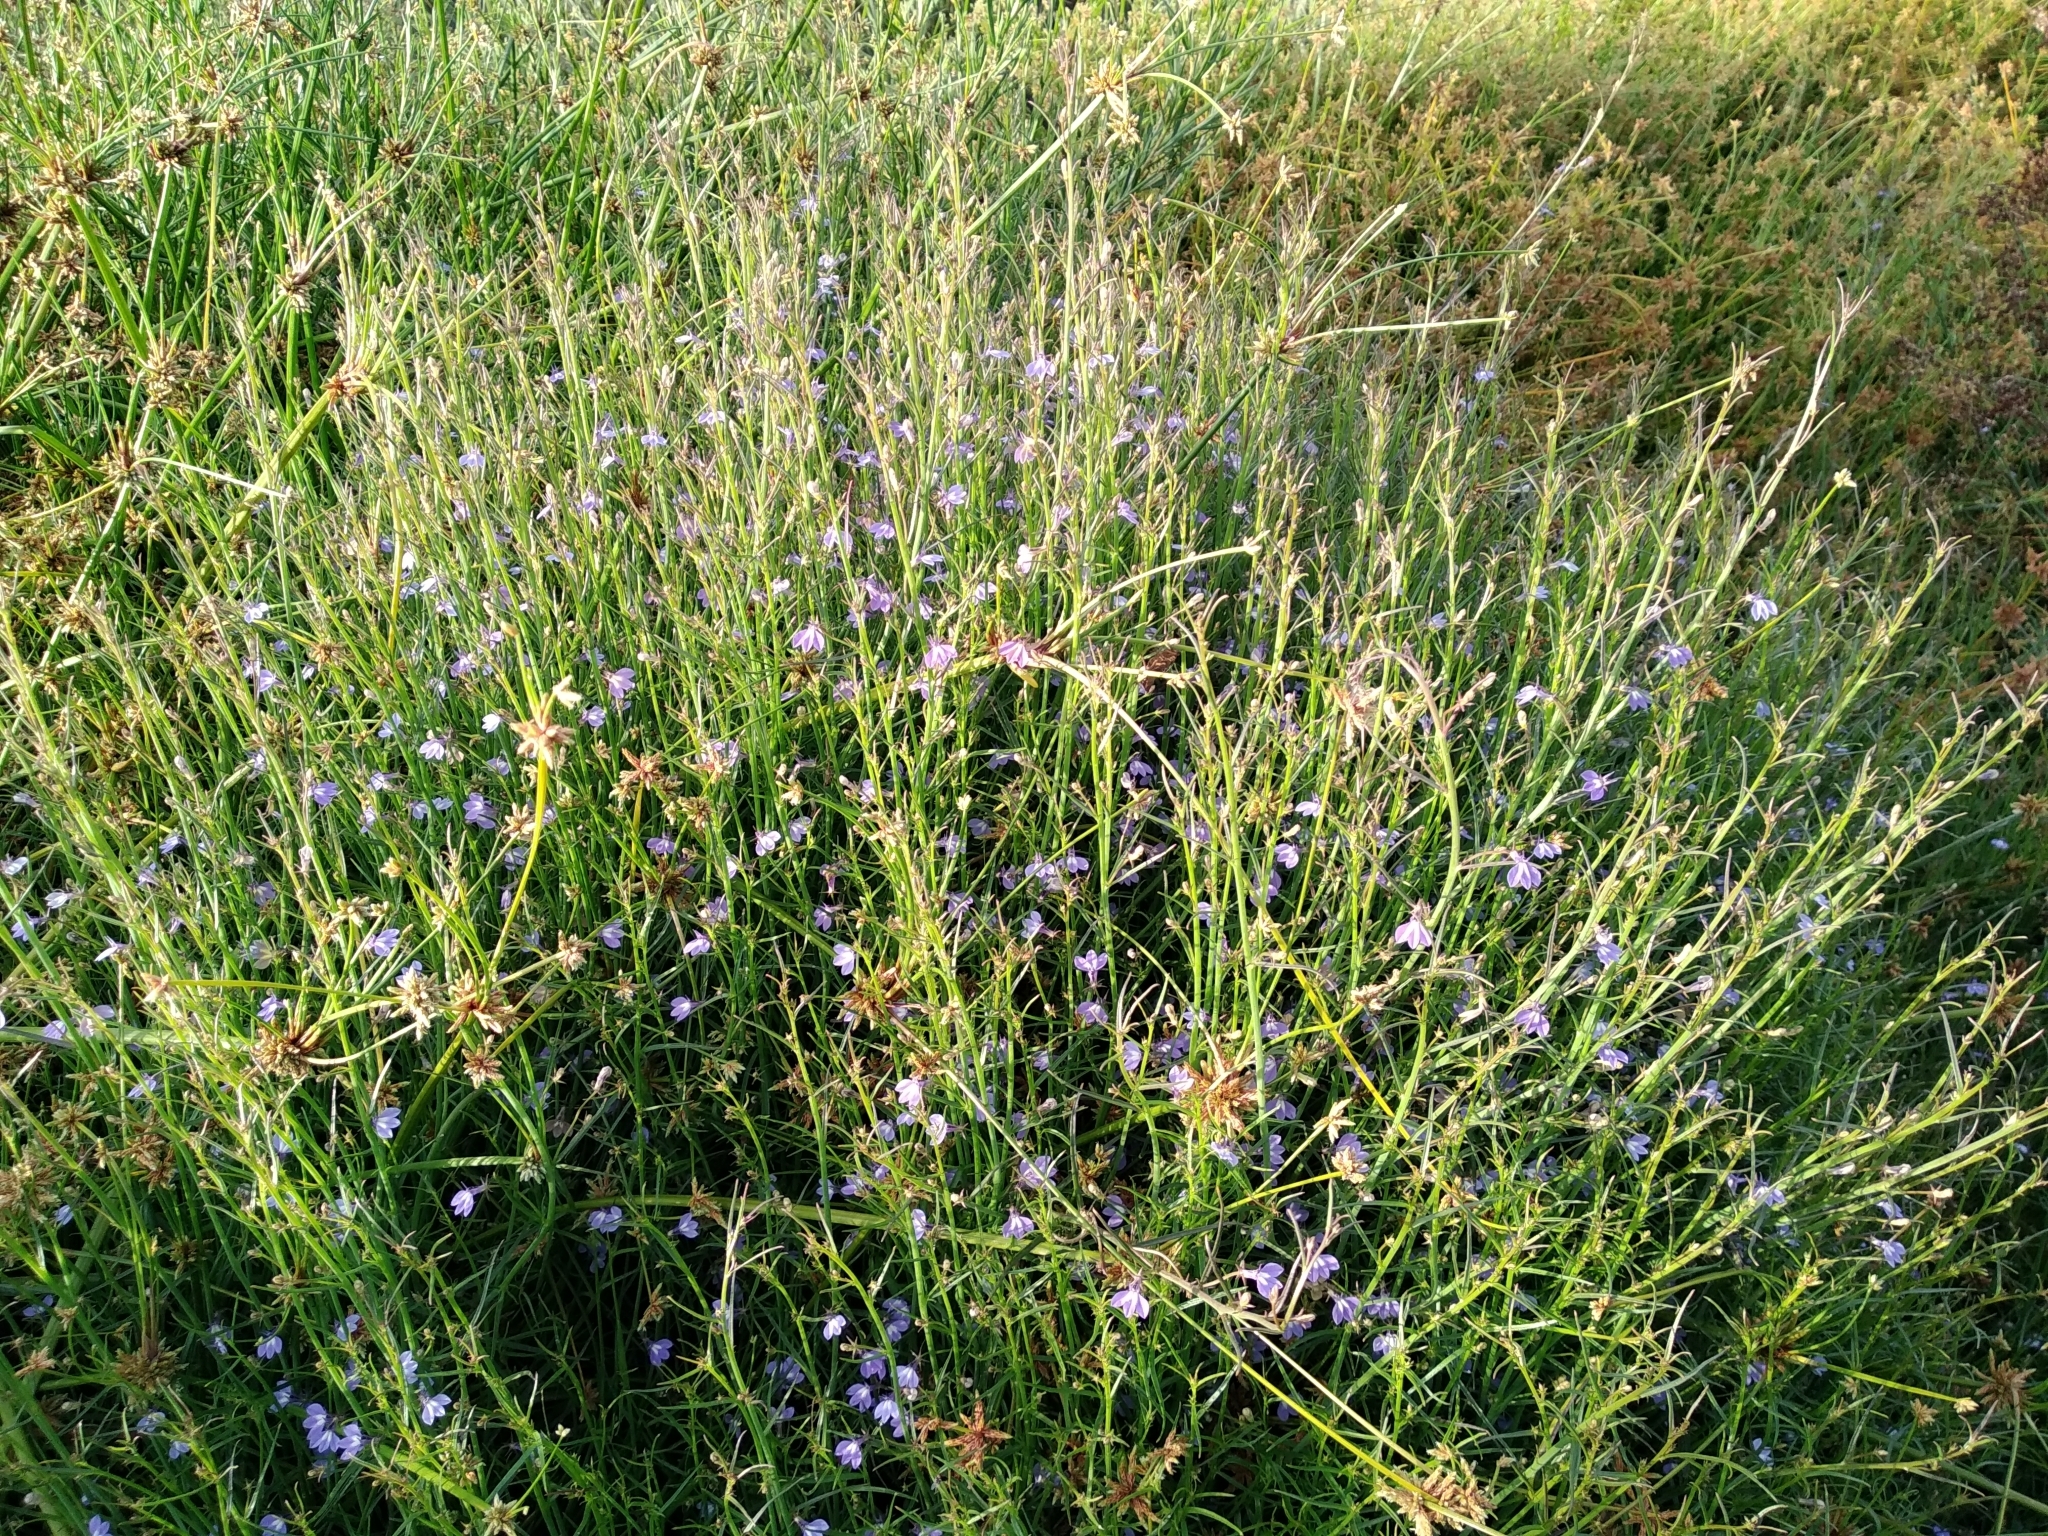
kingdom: Plantae
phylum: Tracheophyta
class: Magnoliopsida
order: Asterales
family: Campanulaceae
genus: Grammatotheca
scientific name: Grammatotheca bergiana
